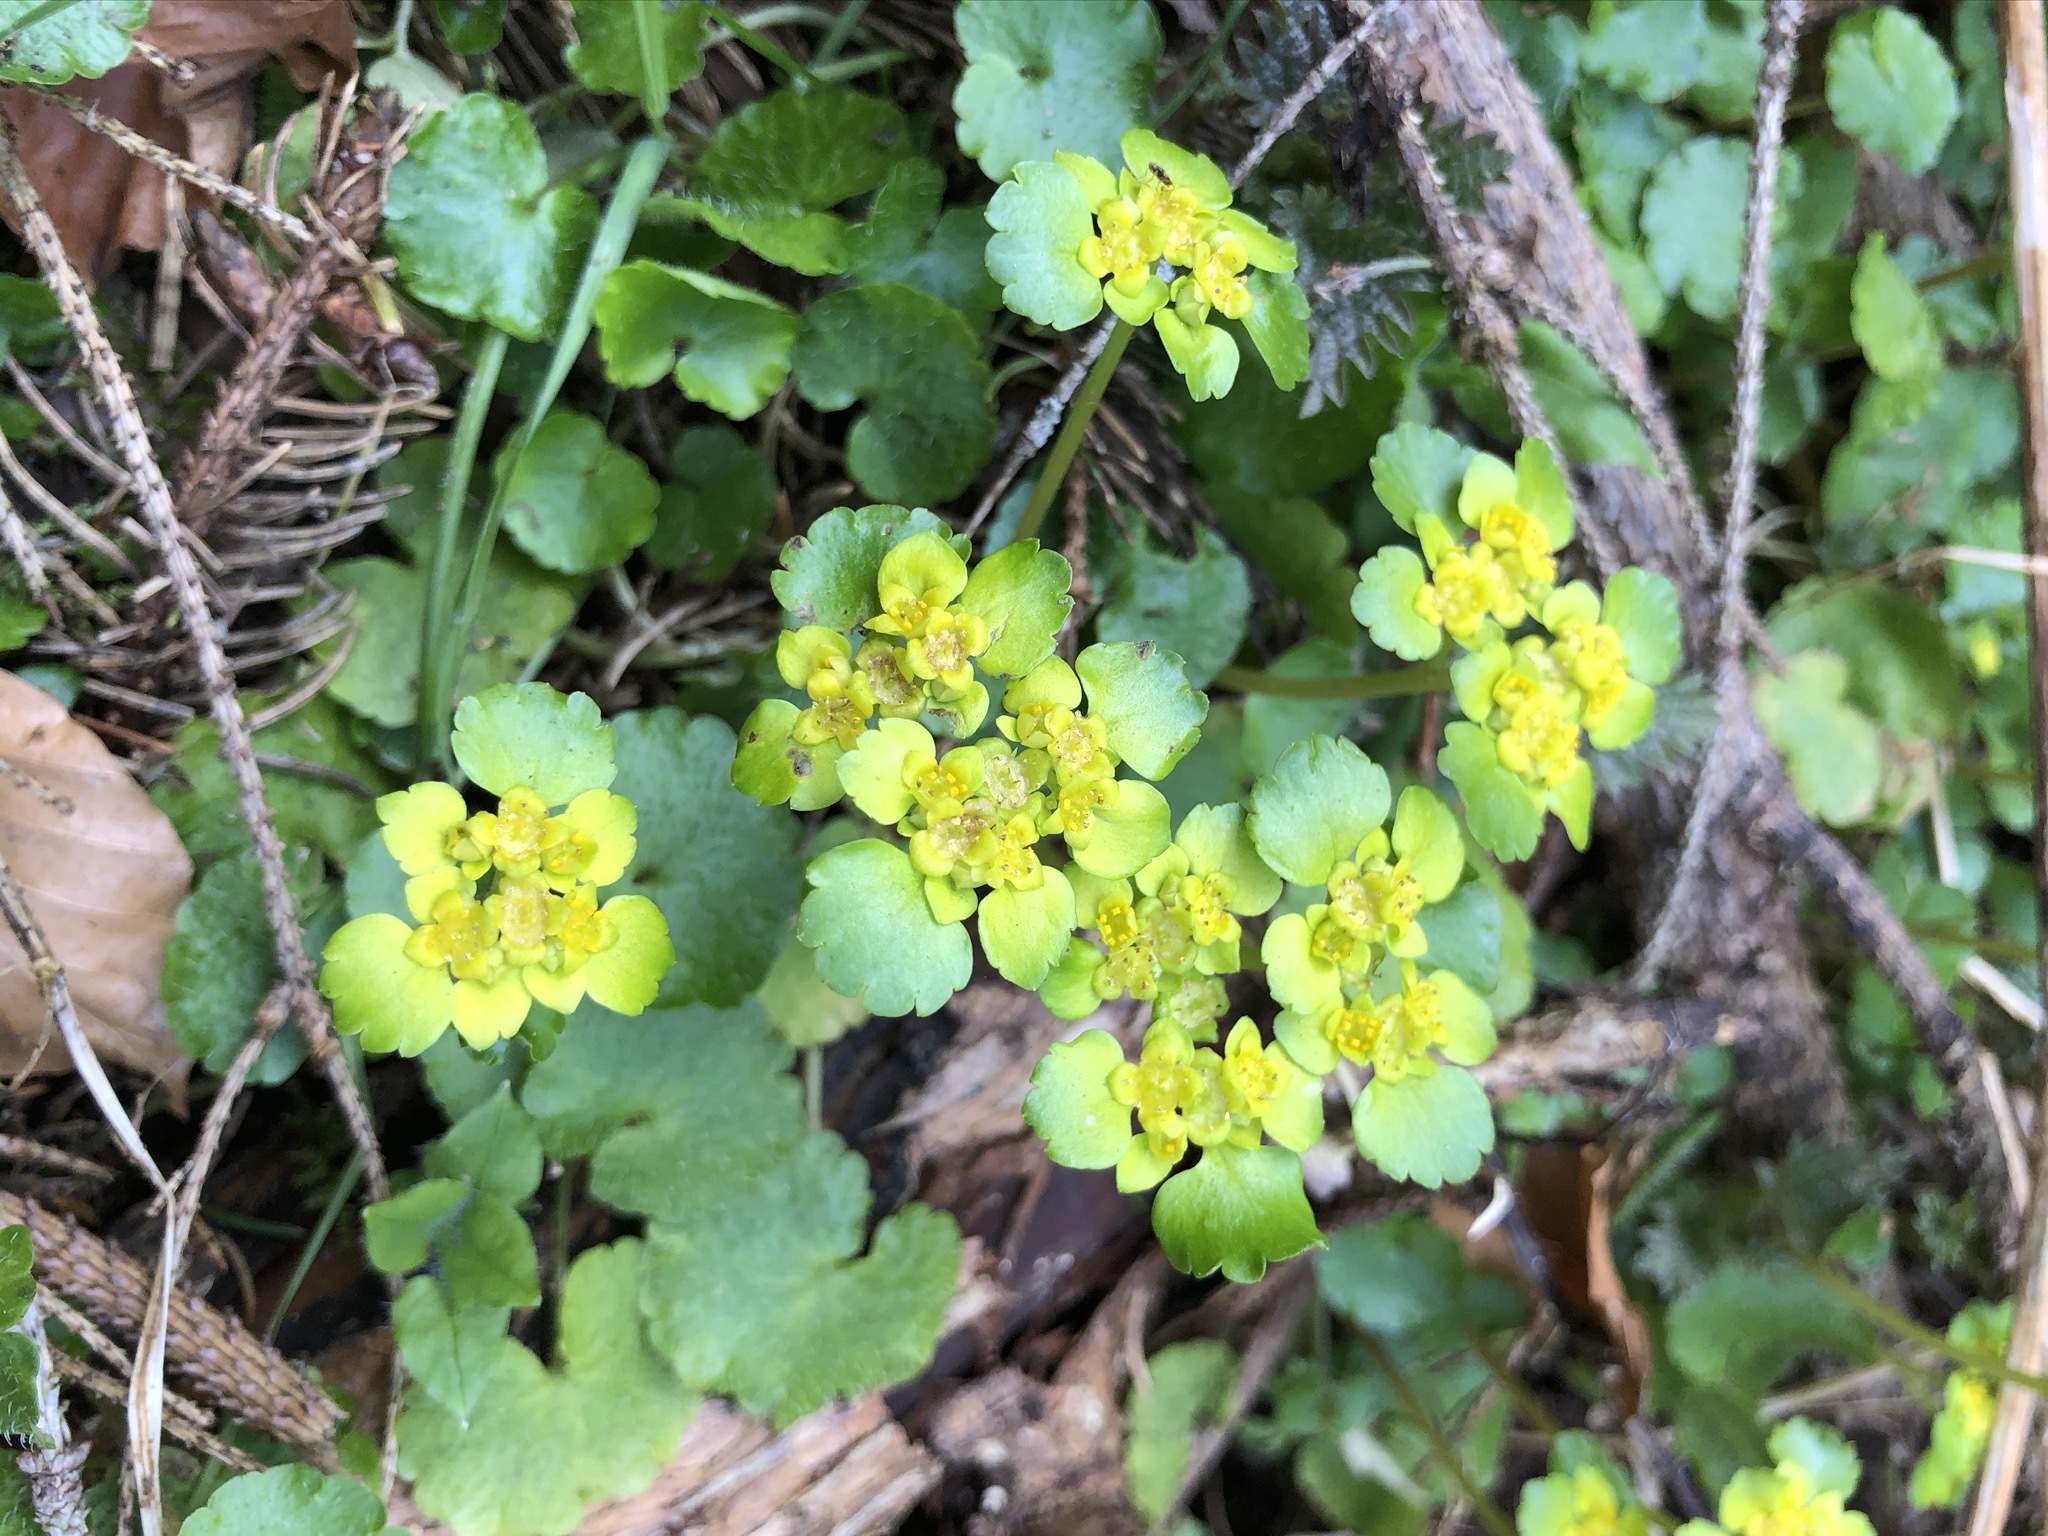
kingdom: Plantae
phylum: Tracheophyta
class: Magnoliopsida
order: Saxifragales
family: Saxifragaceae
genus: Chrysosplenium
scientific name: Chrysosplenium alternifolium
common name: Alternate-leaved golden-saxifrage
